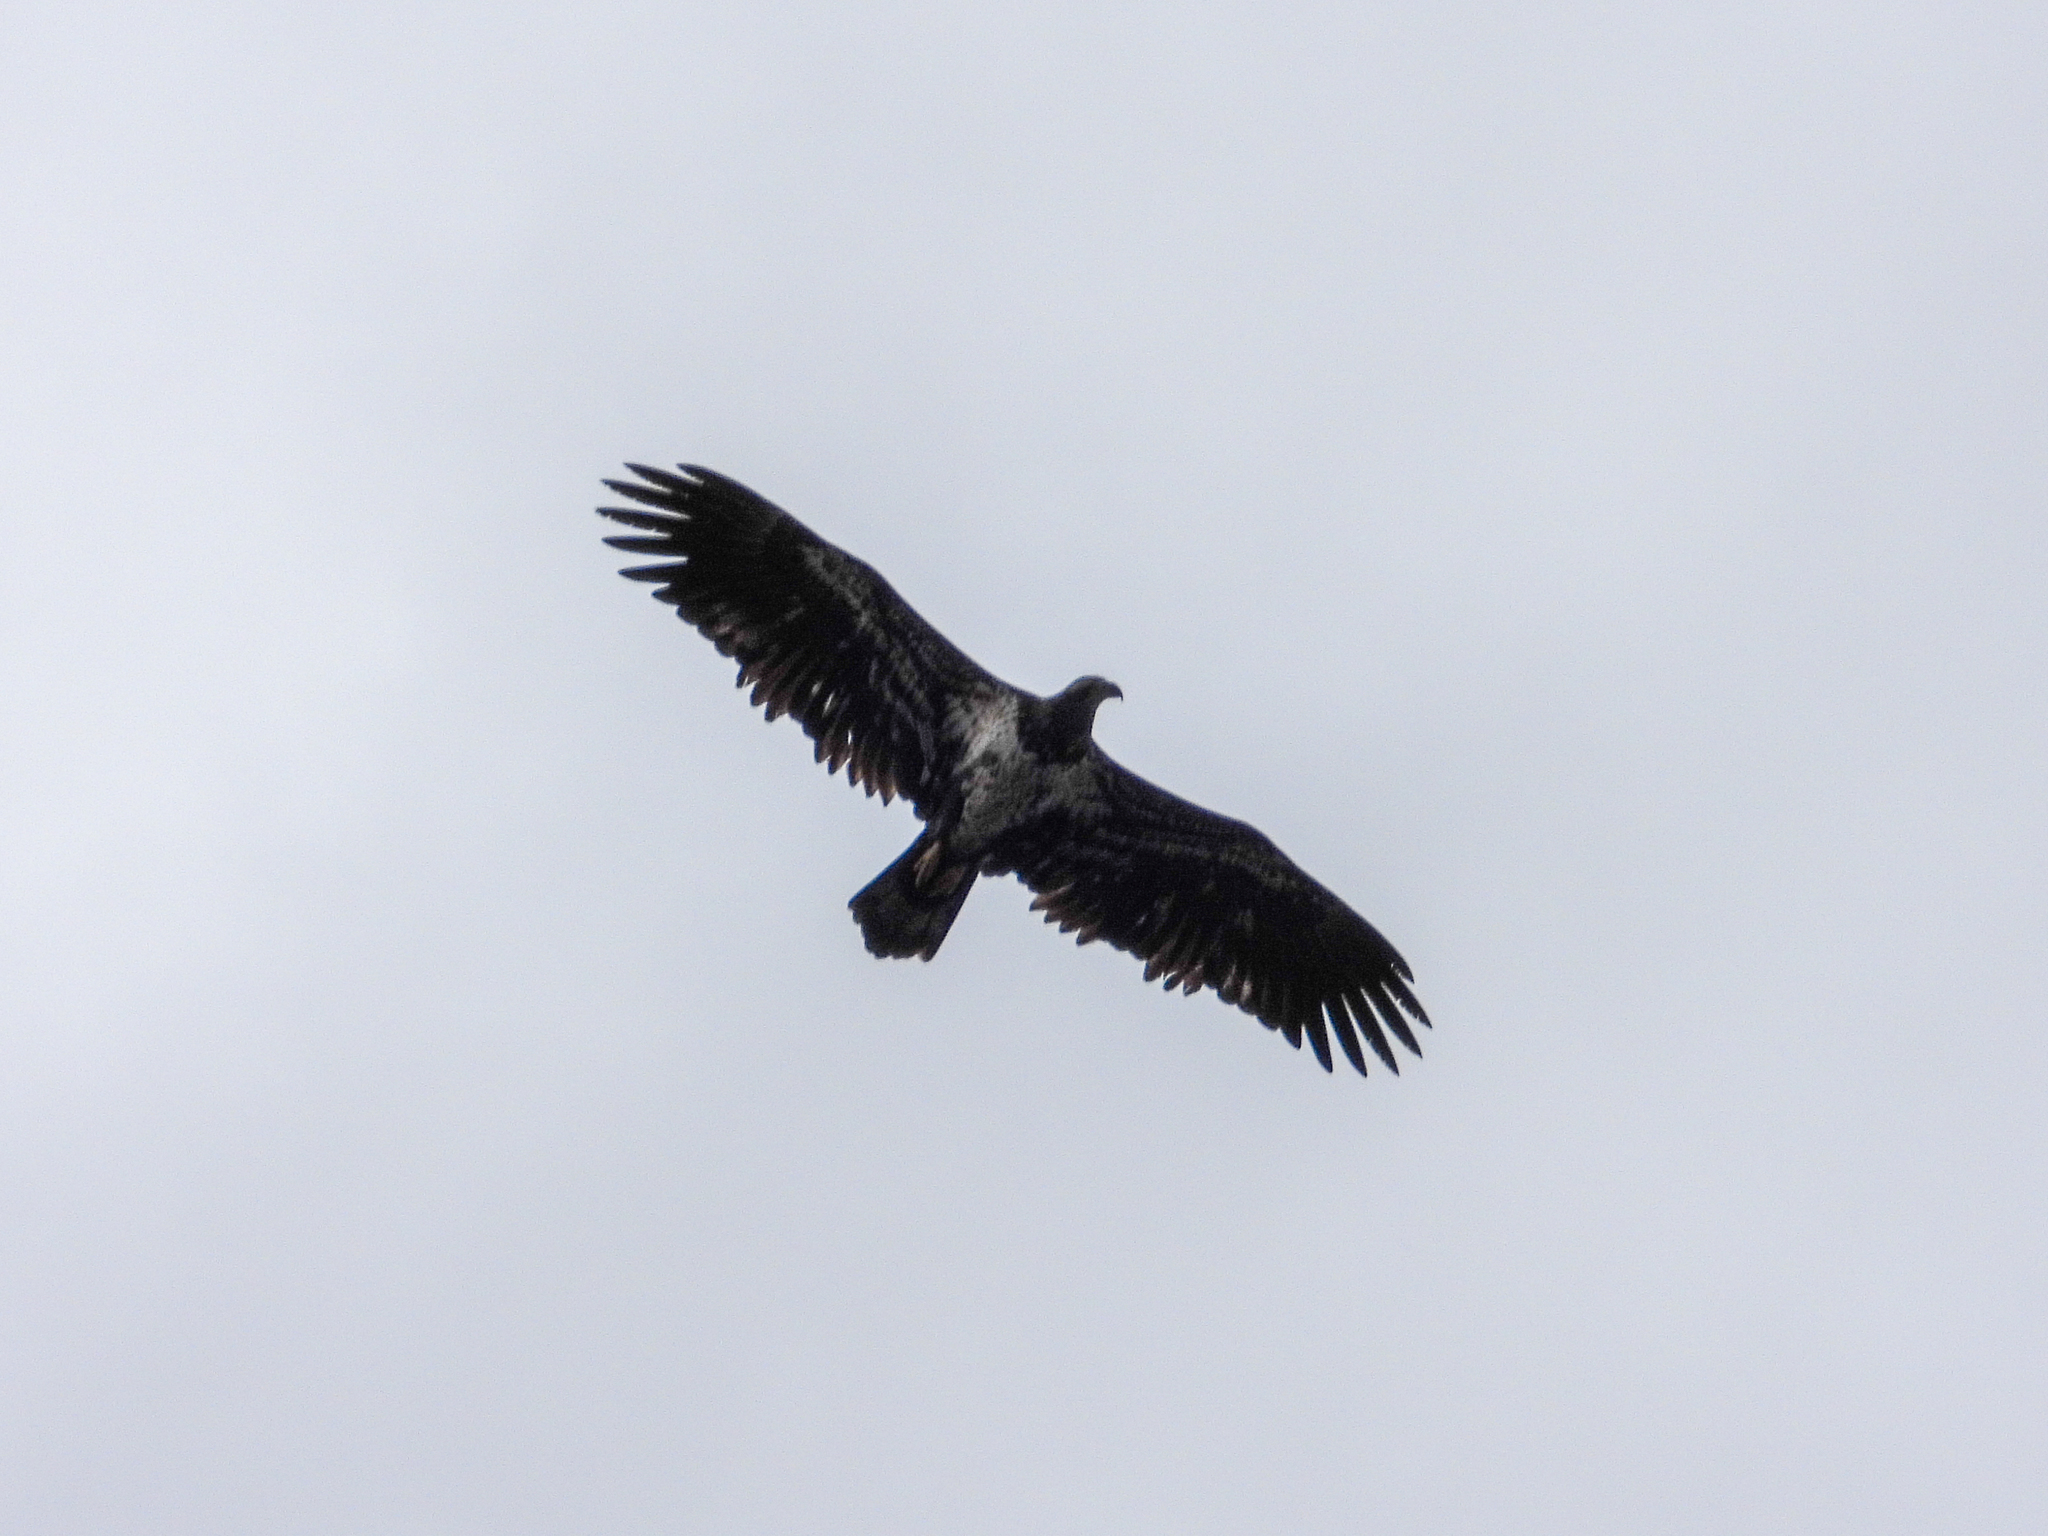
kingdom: Animalia
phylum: Chordata
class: Aves
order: Accipitriformes
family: Accipitridae
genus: Haliaeetus
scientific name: Haliaeetus leucocephalus
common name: Bald eagle
